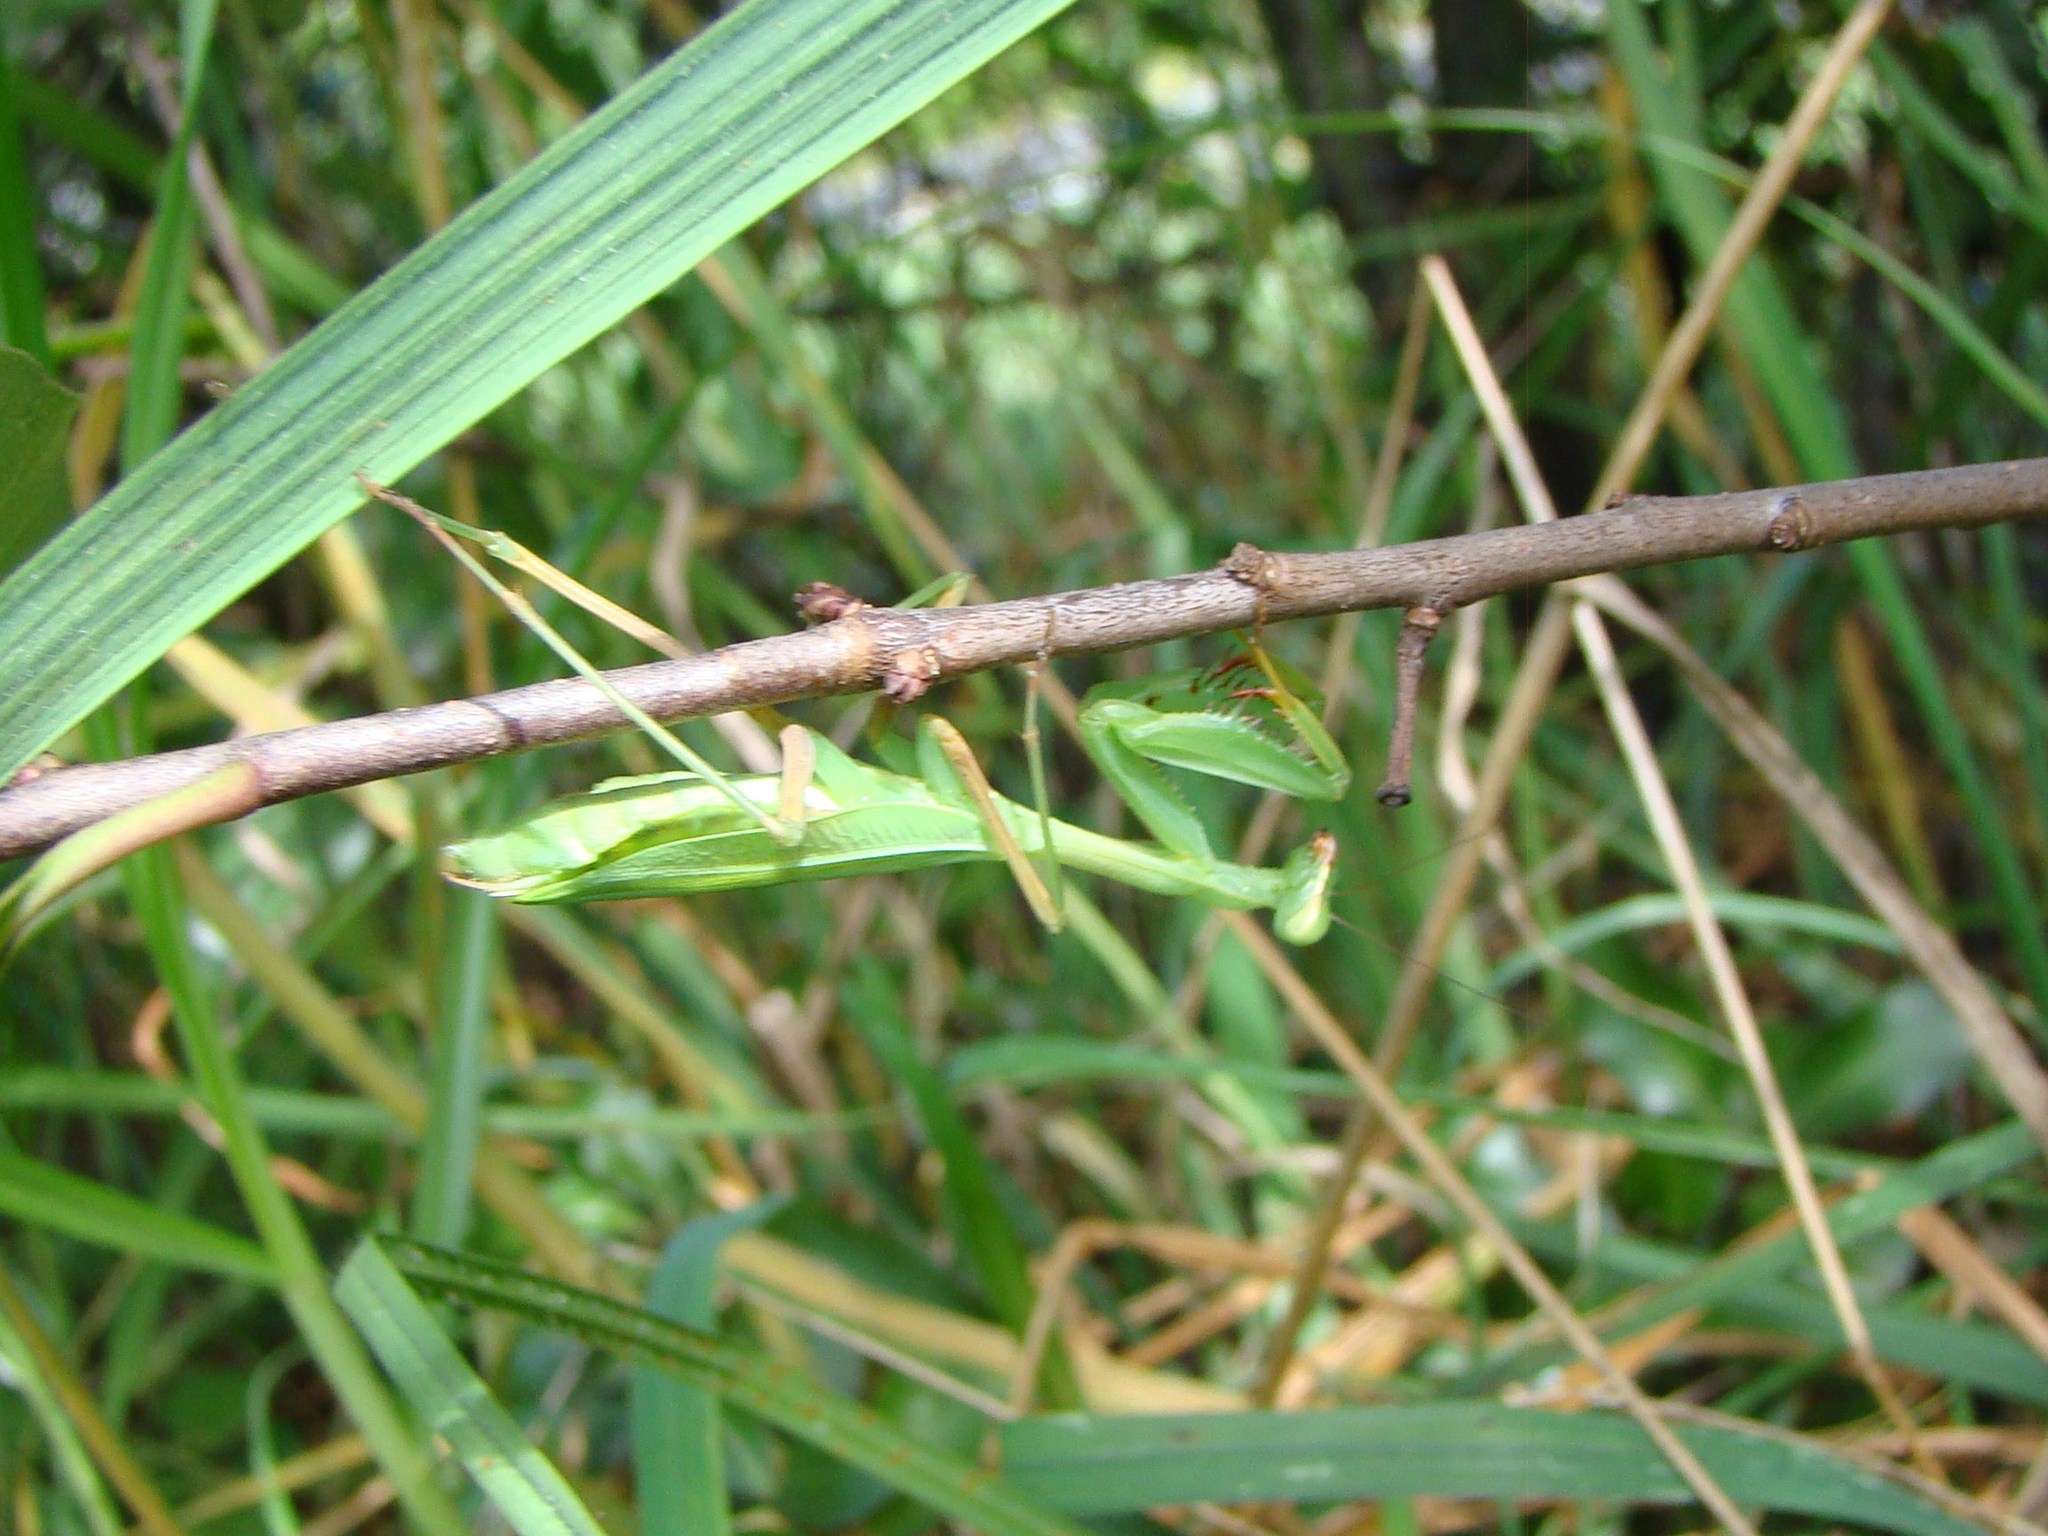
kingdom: Animalia
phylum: Arthropoda
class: Insecta
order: Mantodea
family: Miomantidae
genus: Miomantis
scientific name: Miomantis caffra
